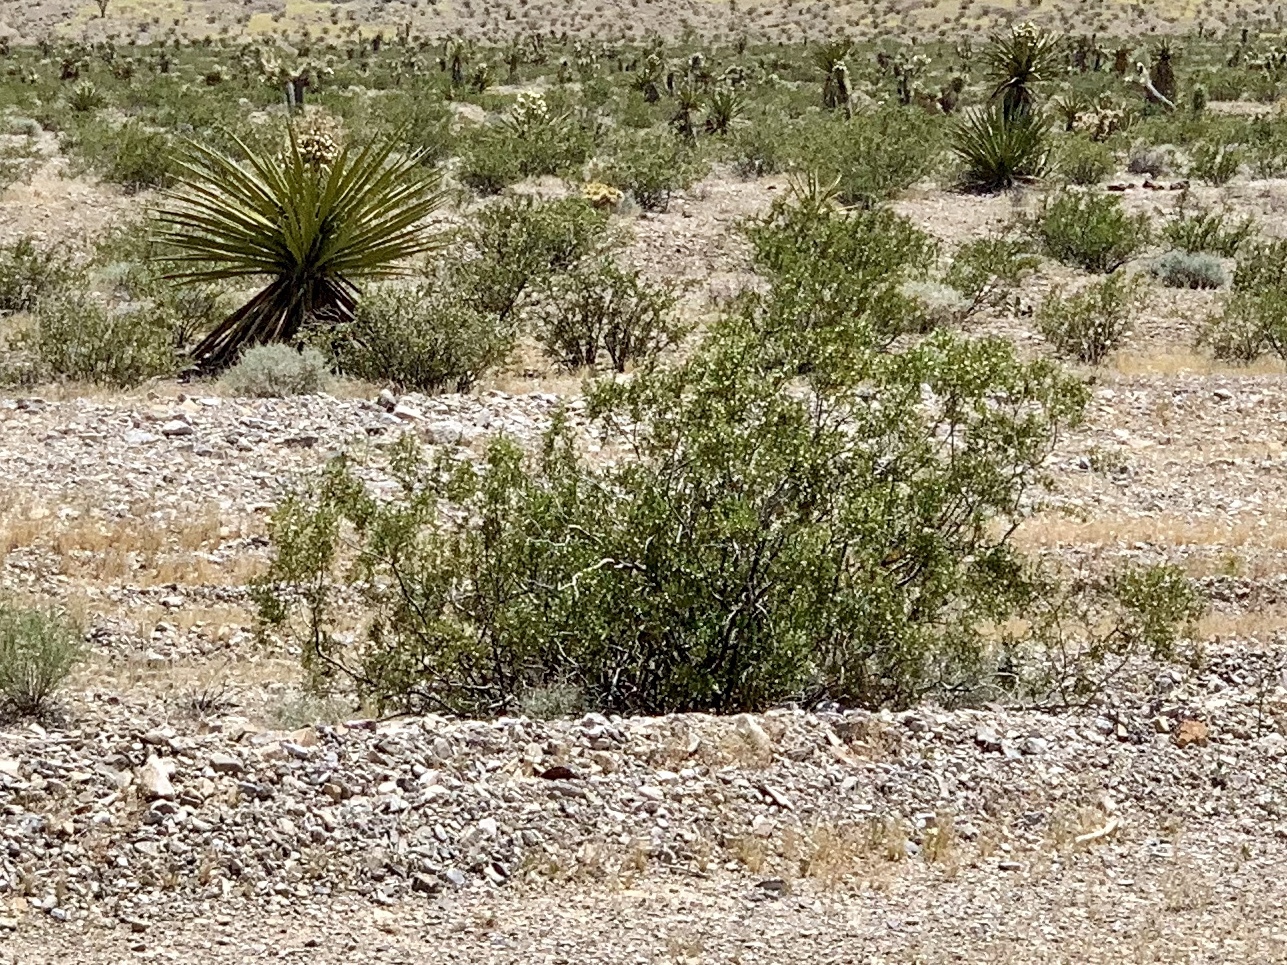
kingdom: Plantae
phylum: Tracheophyta
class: Magnoliopsida
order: Zygophyllales
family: Zygophyllaceae
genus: Larrea
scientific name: Larrea tridentata
